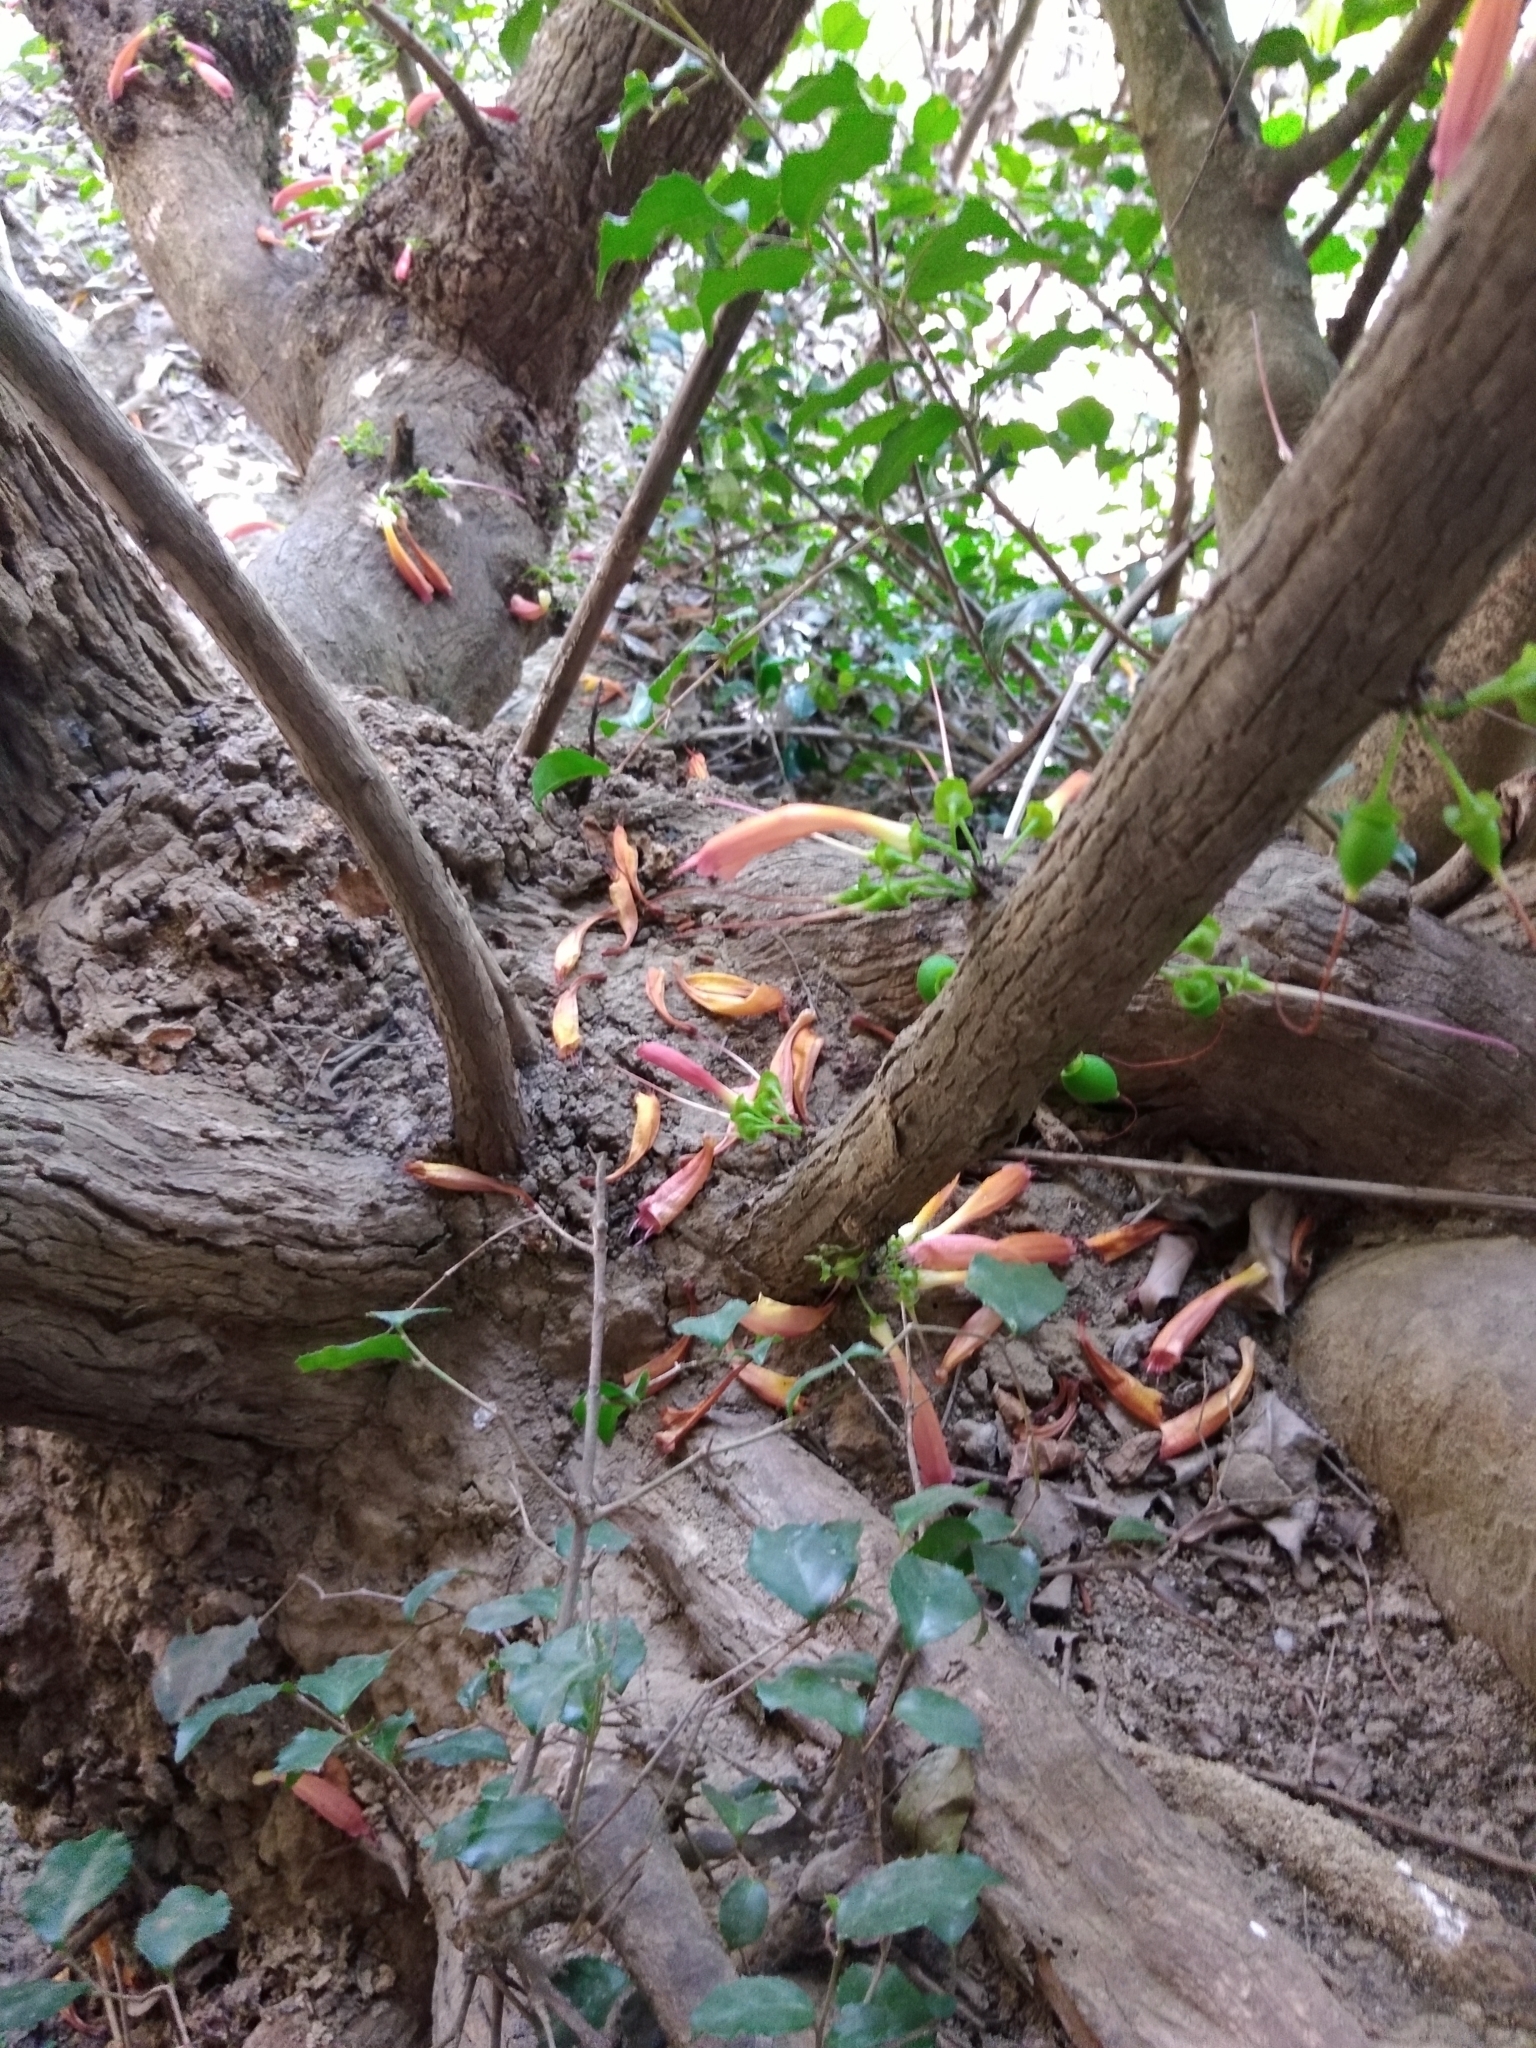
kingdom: Plantae
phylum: Tracheophyta
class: Magnoliopsida
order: Lamiales
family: Stilbaceae
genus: Halleria
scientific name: Halleria lucida
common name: Tree fuschia
